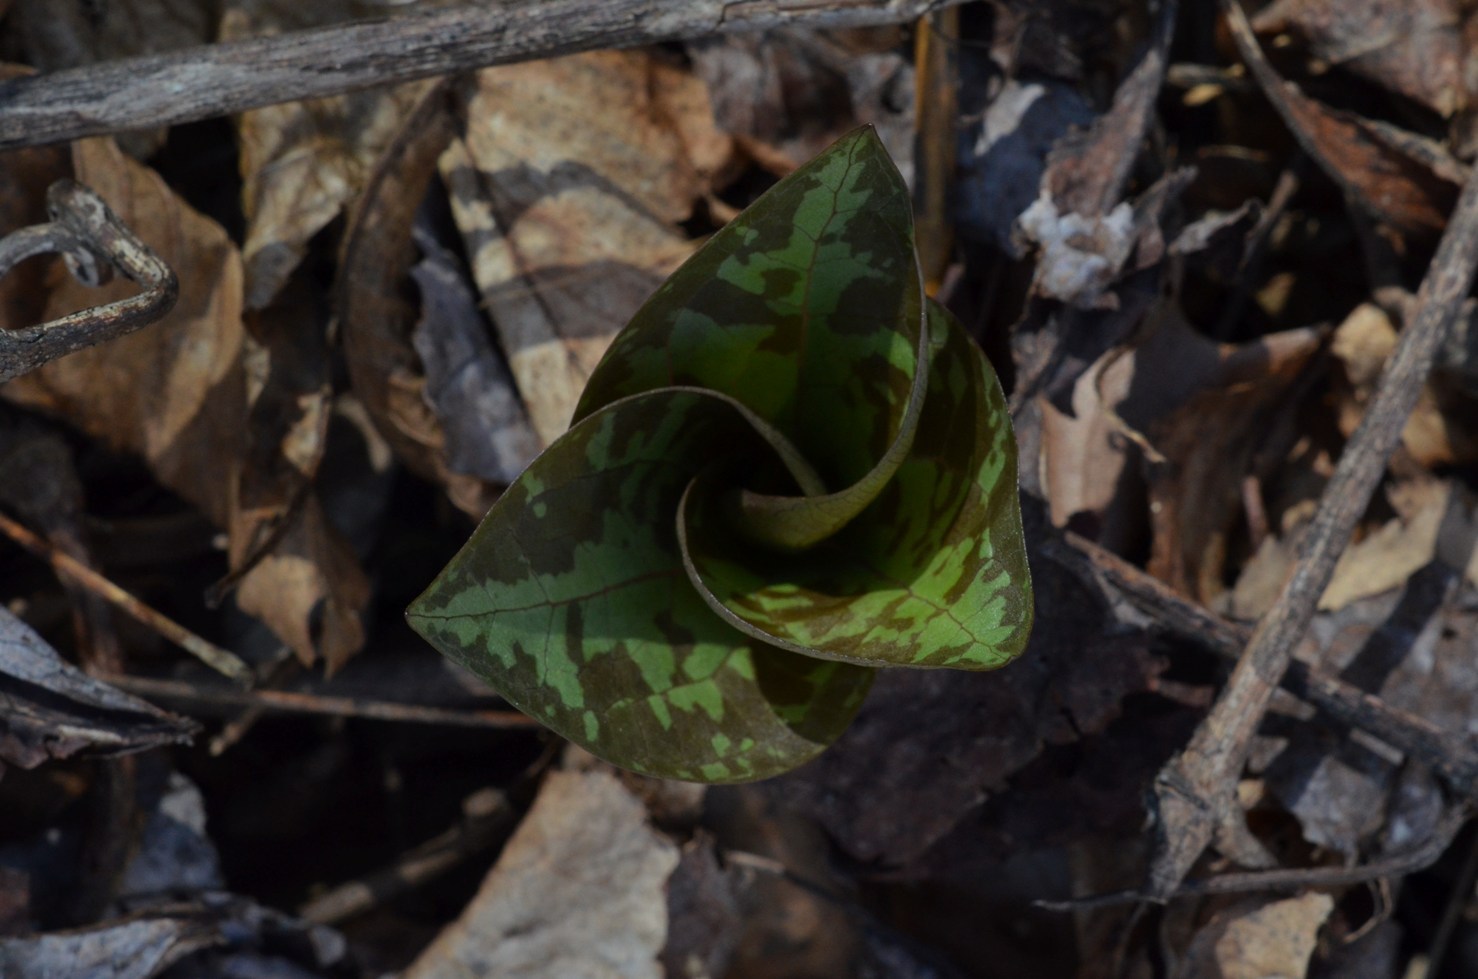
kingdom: Plantae
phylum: Tracheophyta
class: Liliopsida
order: Liliales
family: Melanthiaceae
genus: Trillium
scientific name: Trillium cuneatum
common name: Cuneate trillium
